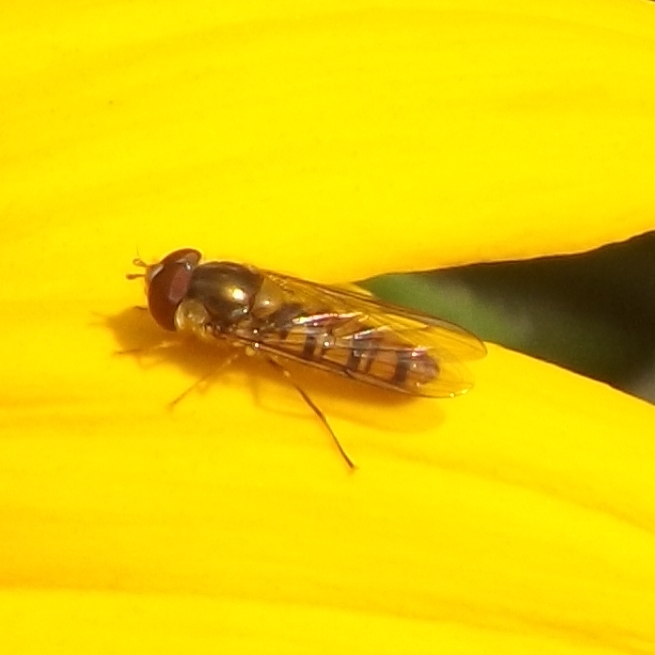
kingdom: Animalia
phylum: Arthropoda
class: Insecta
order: Diptera
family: Syrphidae
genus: Episyrphus
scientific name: Episyrphus balteatus
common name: Marmalade hoverfly
